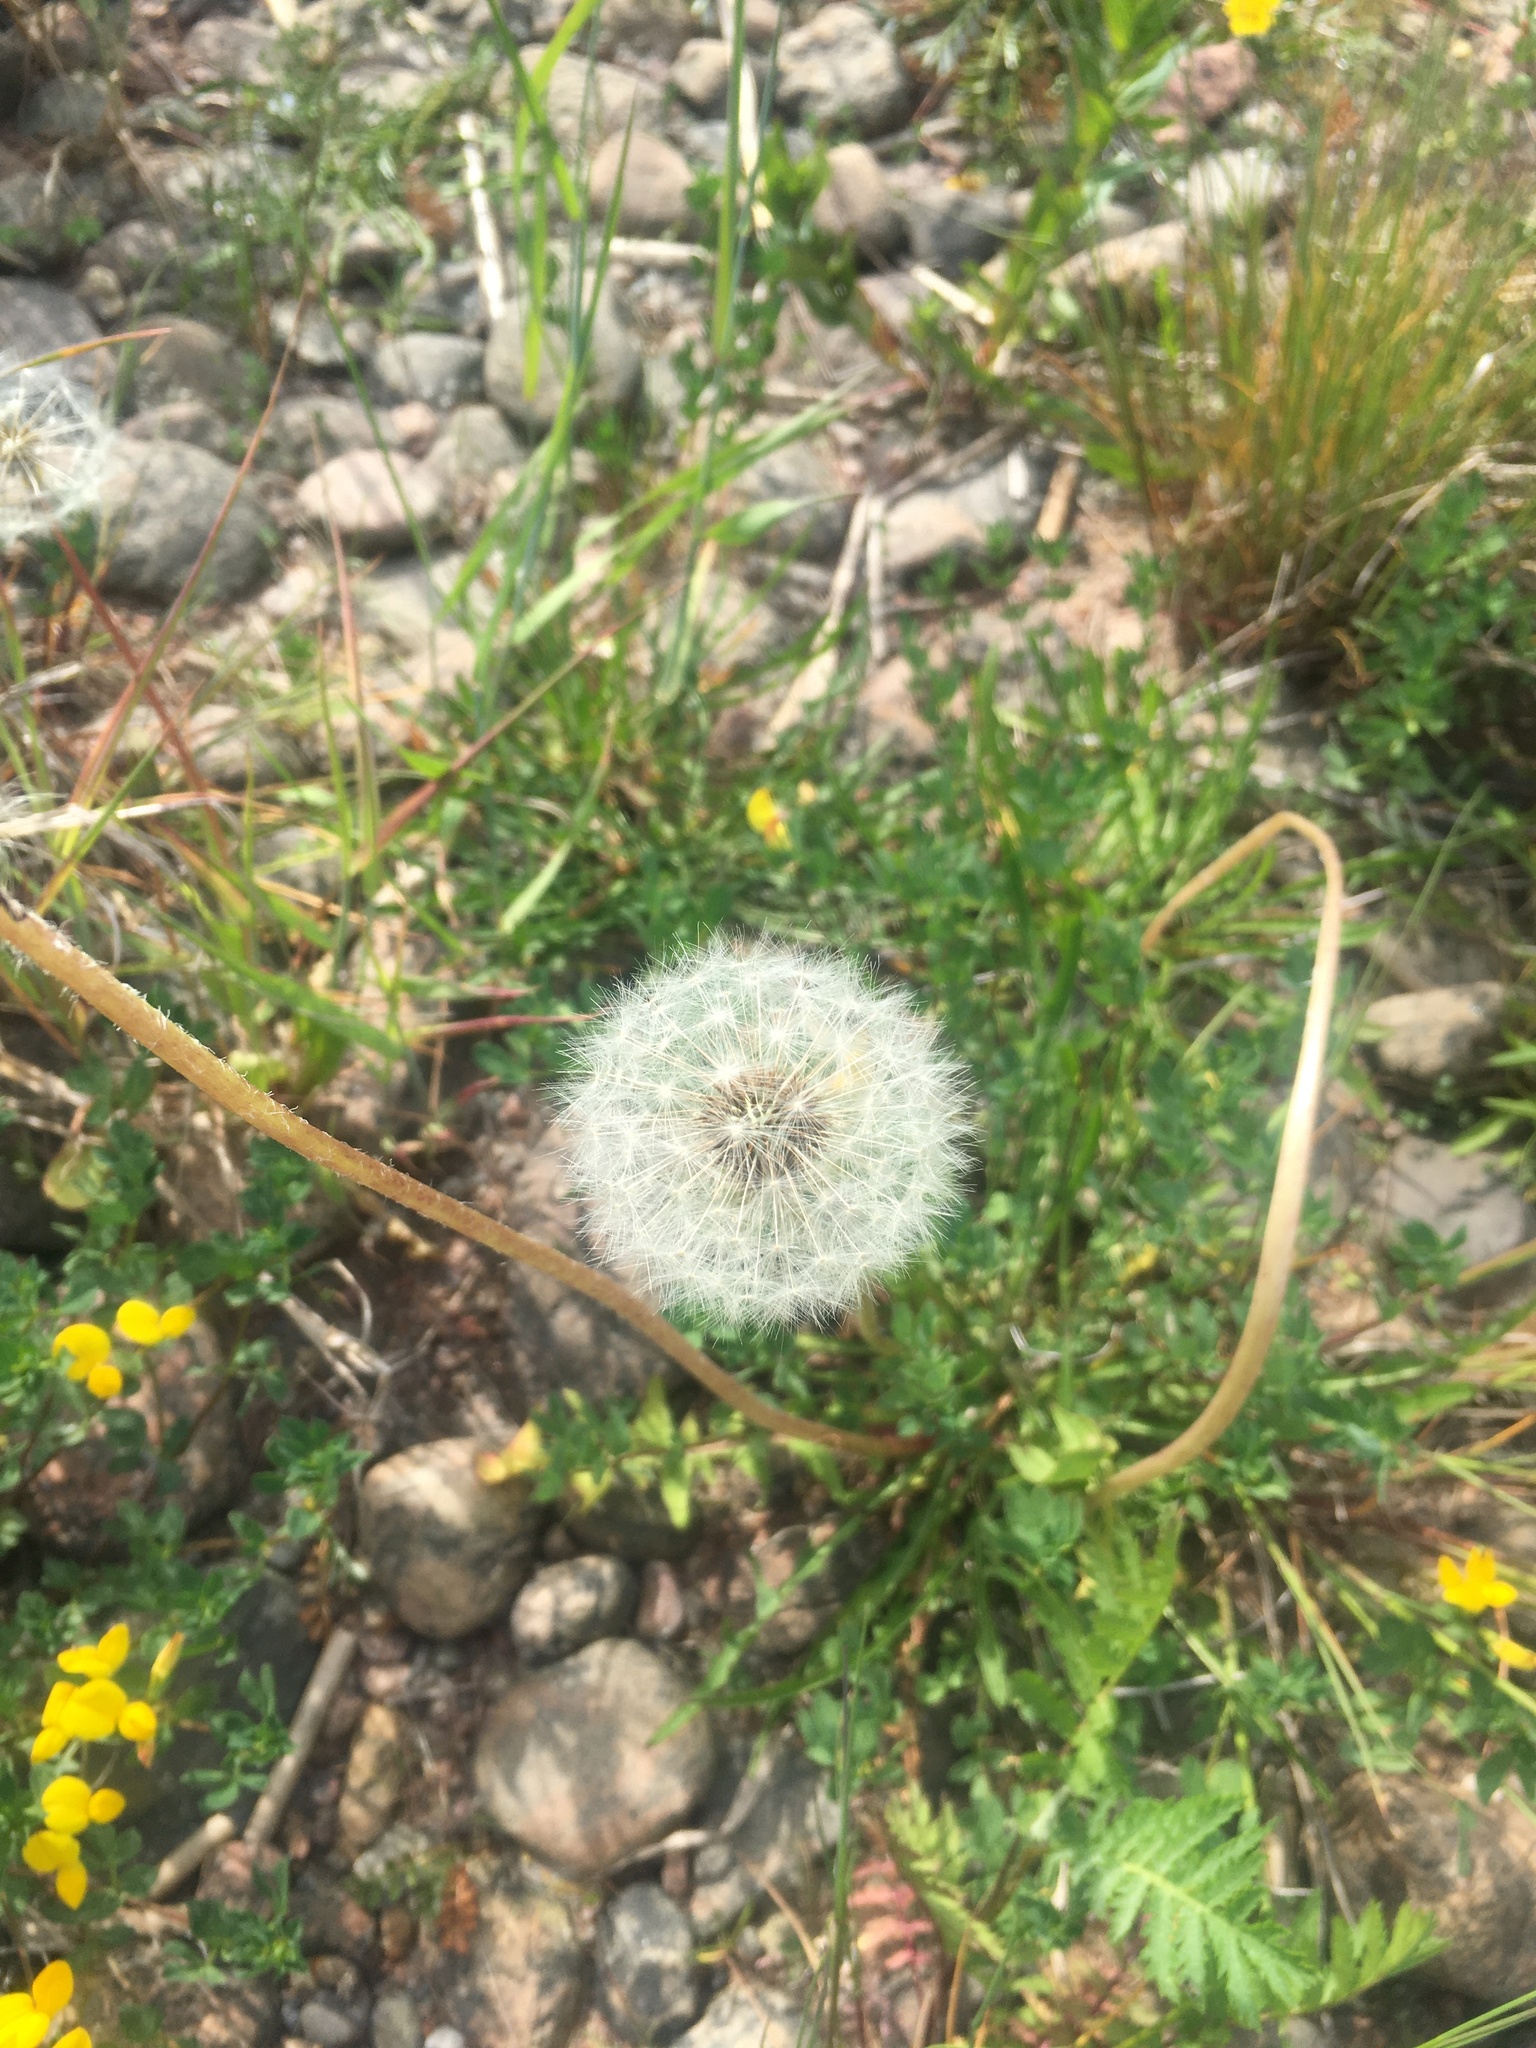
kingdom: Plantae
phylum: Tracheophyta
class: Magnoliopsida
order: Asterales
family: Asteraceae
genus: Taraxacum
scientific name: Taraxacum officinale
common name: Common dandelion
